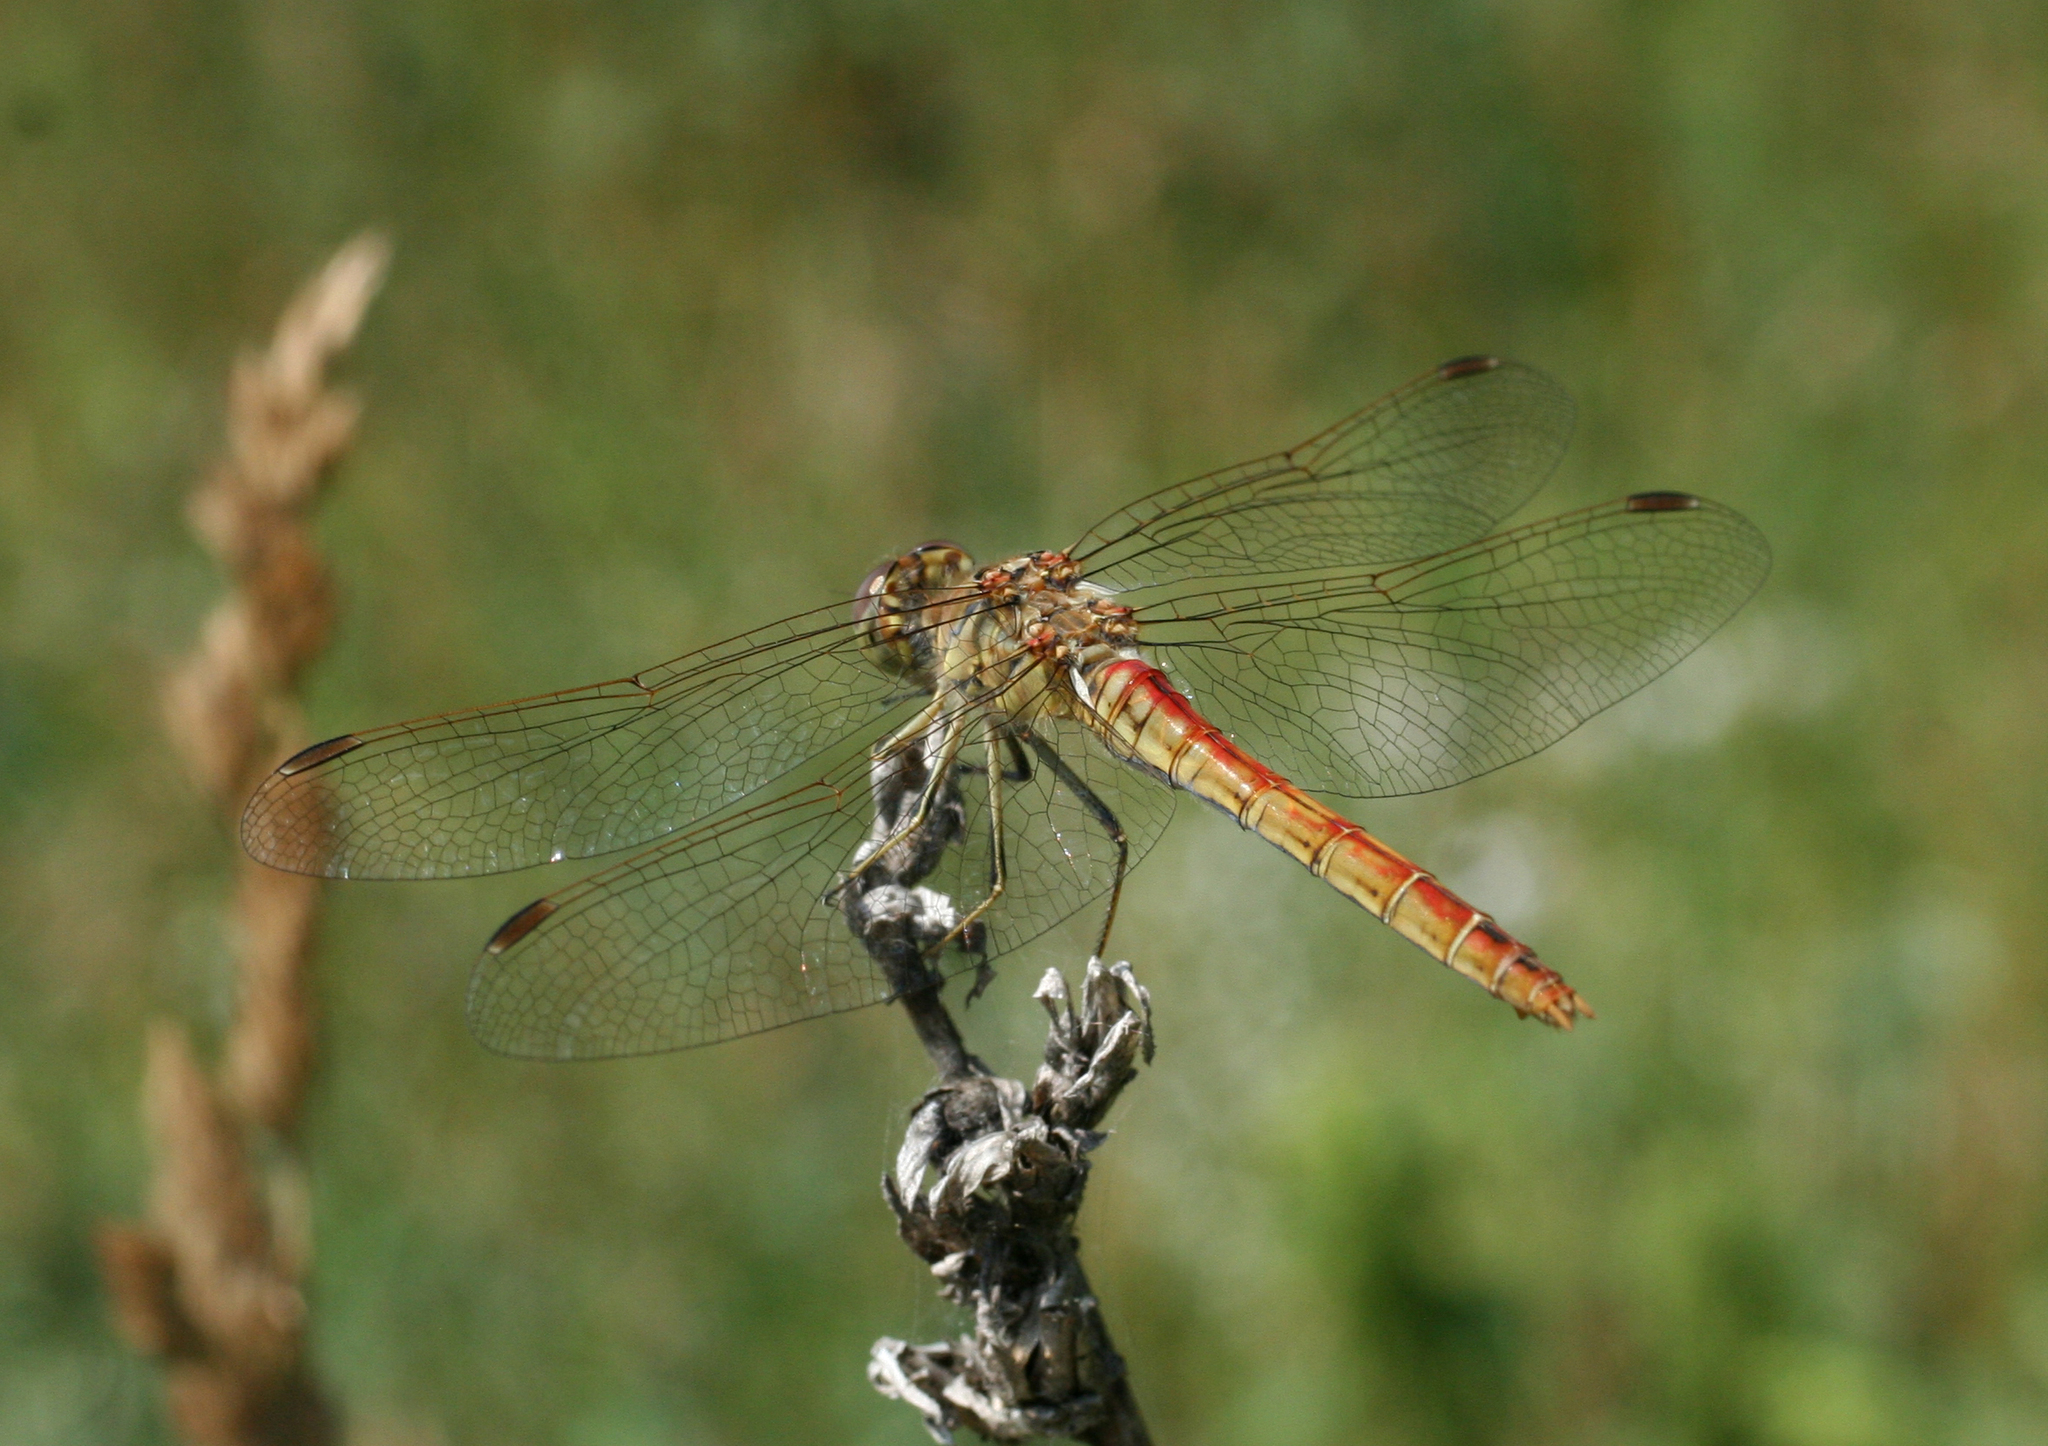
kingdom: Animalia
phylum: Arthropoda
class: Insecta
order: Odonata
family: Libellulidae
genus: Sympetrum
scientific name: Sympetrum vulgatum
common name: Vagrant darter
